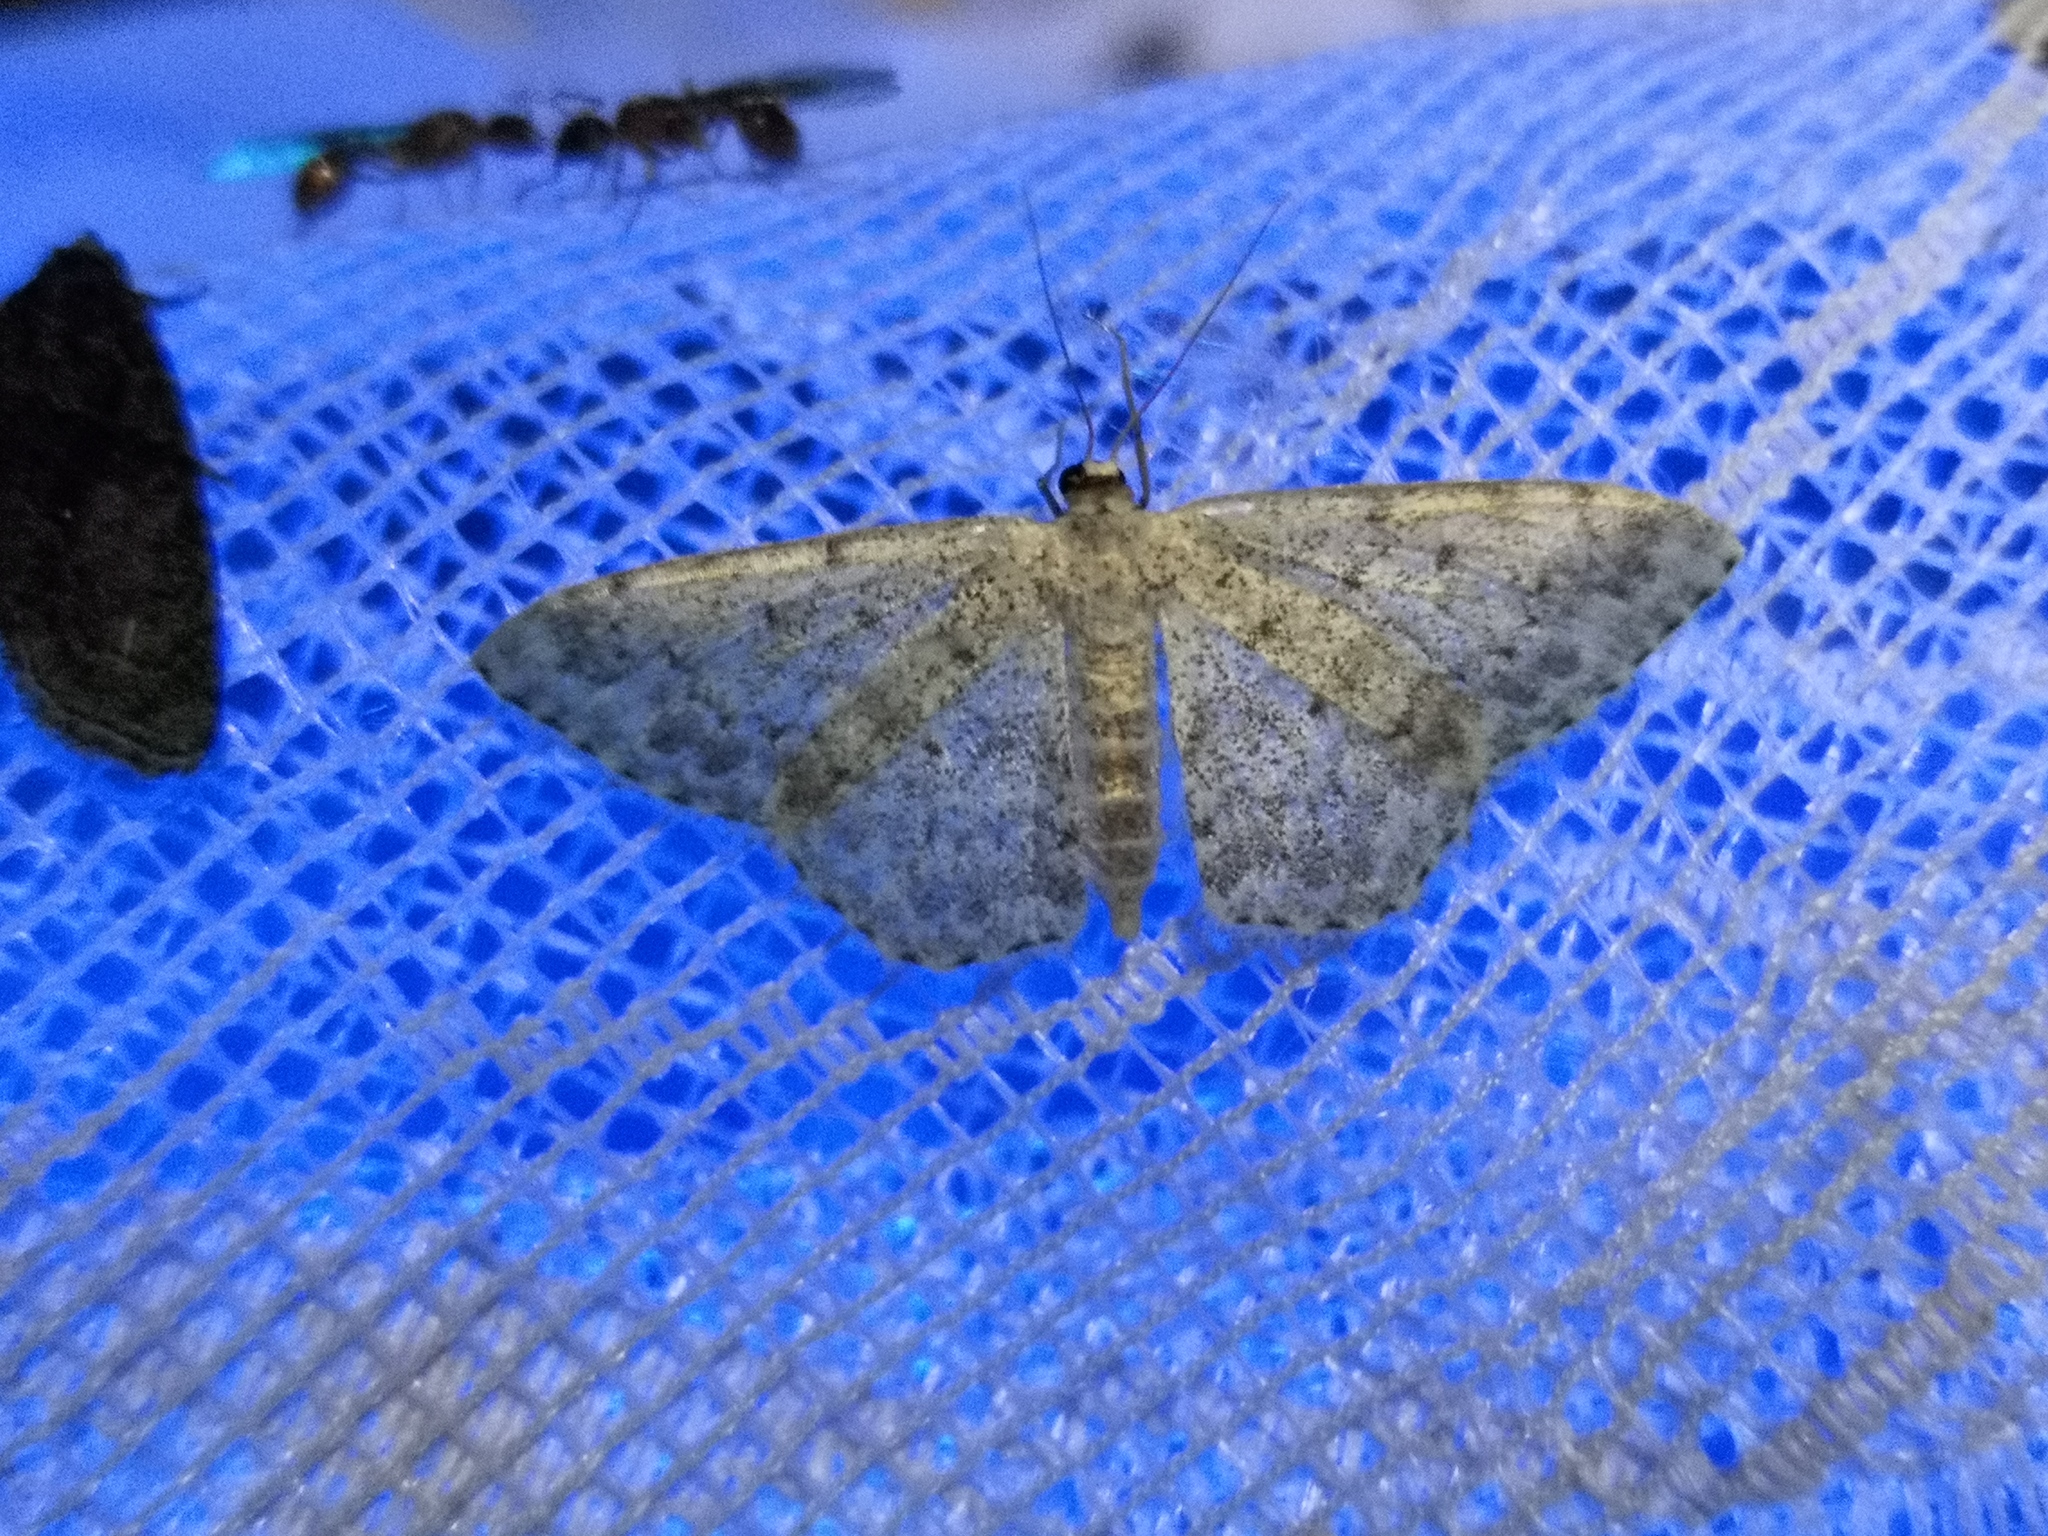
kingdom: Animalia
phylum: Arthropoda
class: Insecta
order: Lepidoptera
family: Geometridae
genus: Scopula
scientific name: Scopula marginepunctata
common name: Mullein wave
